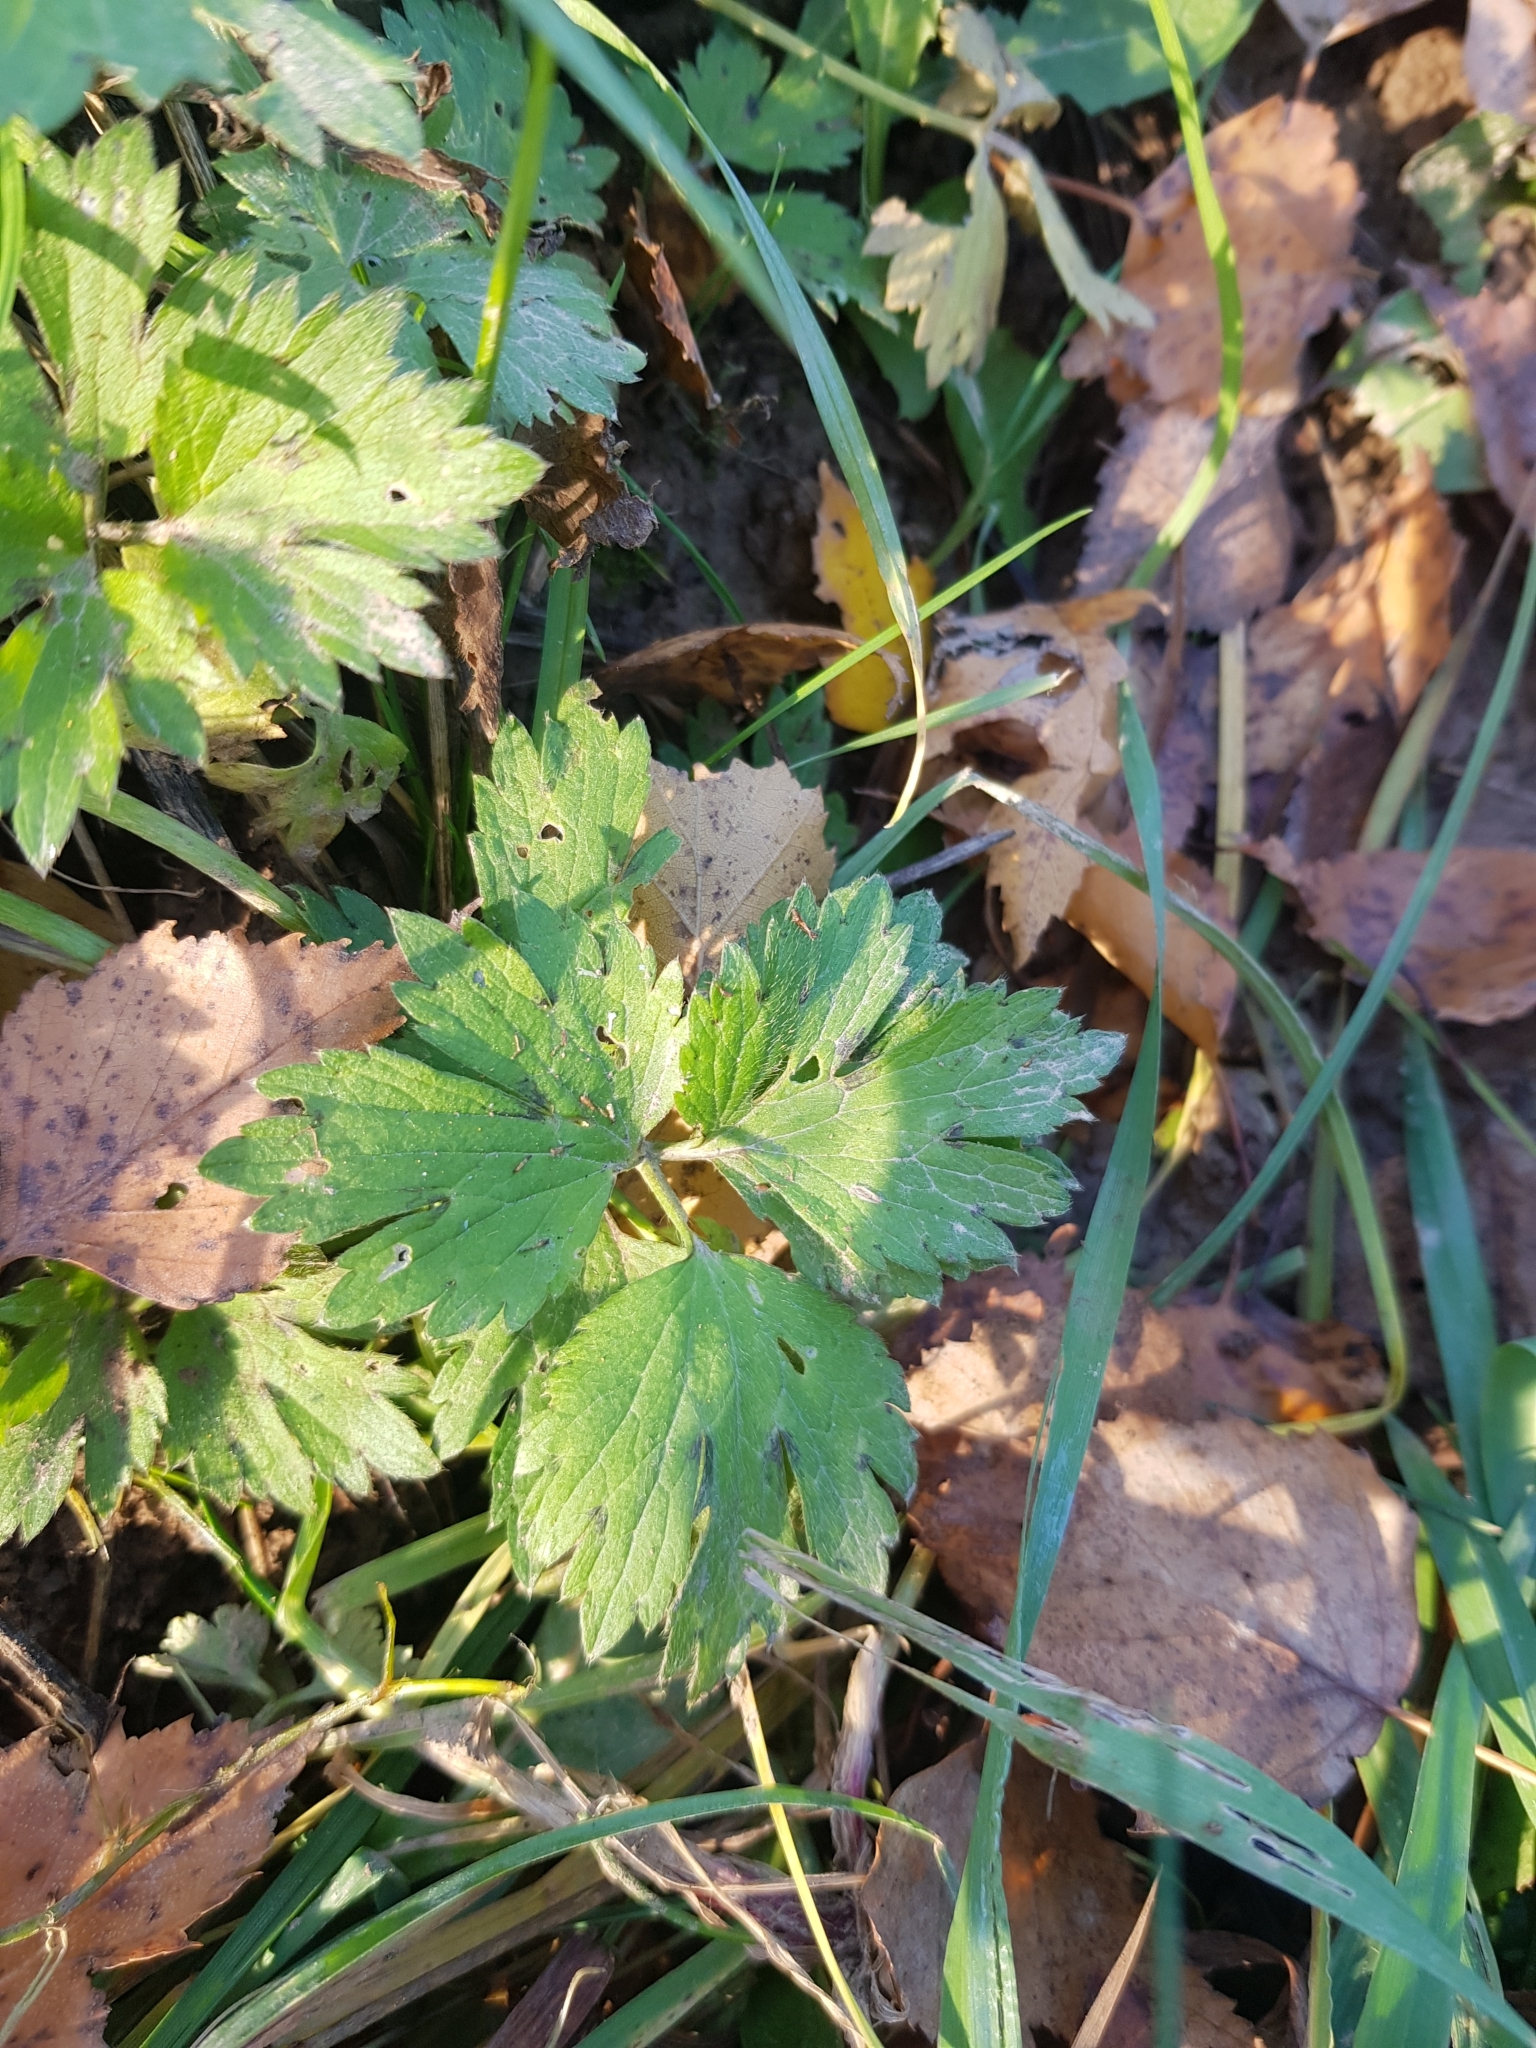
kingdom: Plantae
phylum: Tracheophyta
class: Magnoliopsida
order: Ranunculales
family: Ranunculaceae
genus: Ranunculus
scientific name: Ranunculus repens
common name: Creeping buttercup
